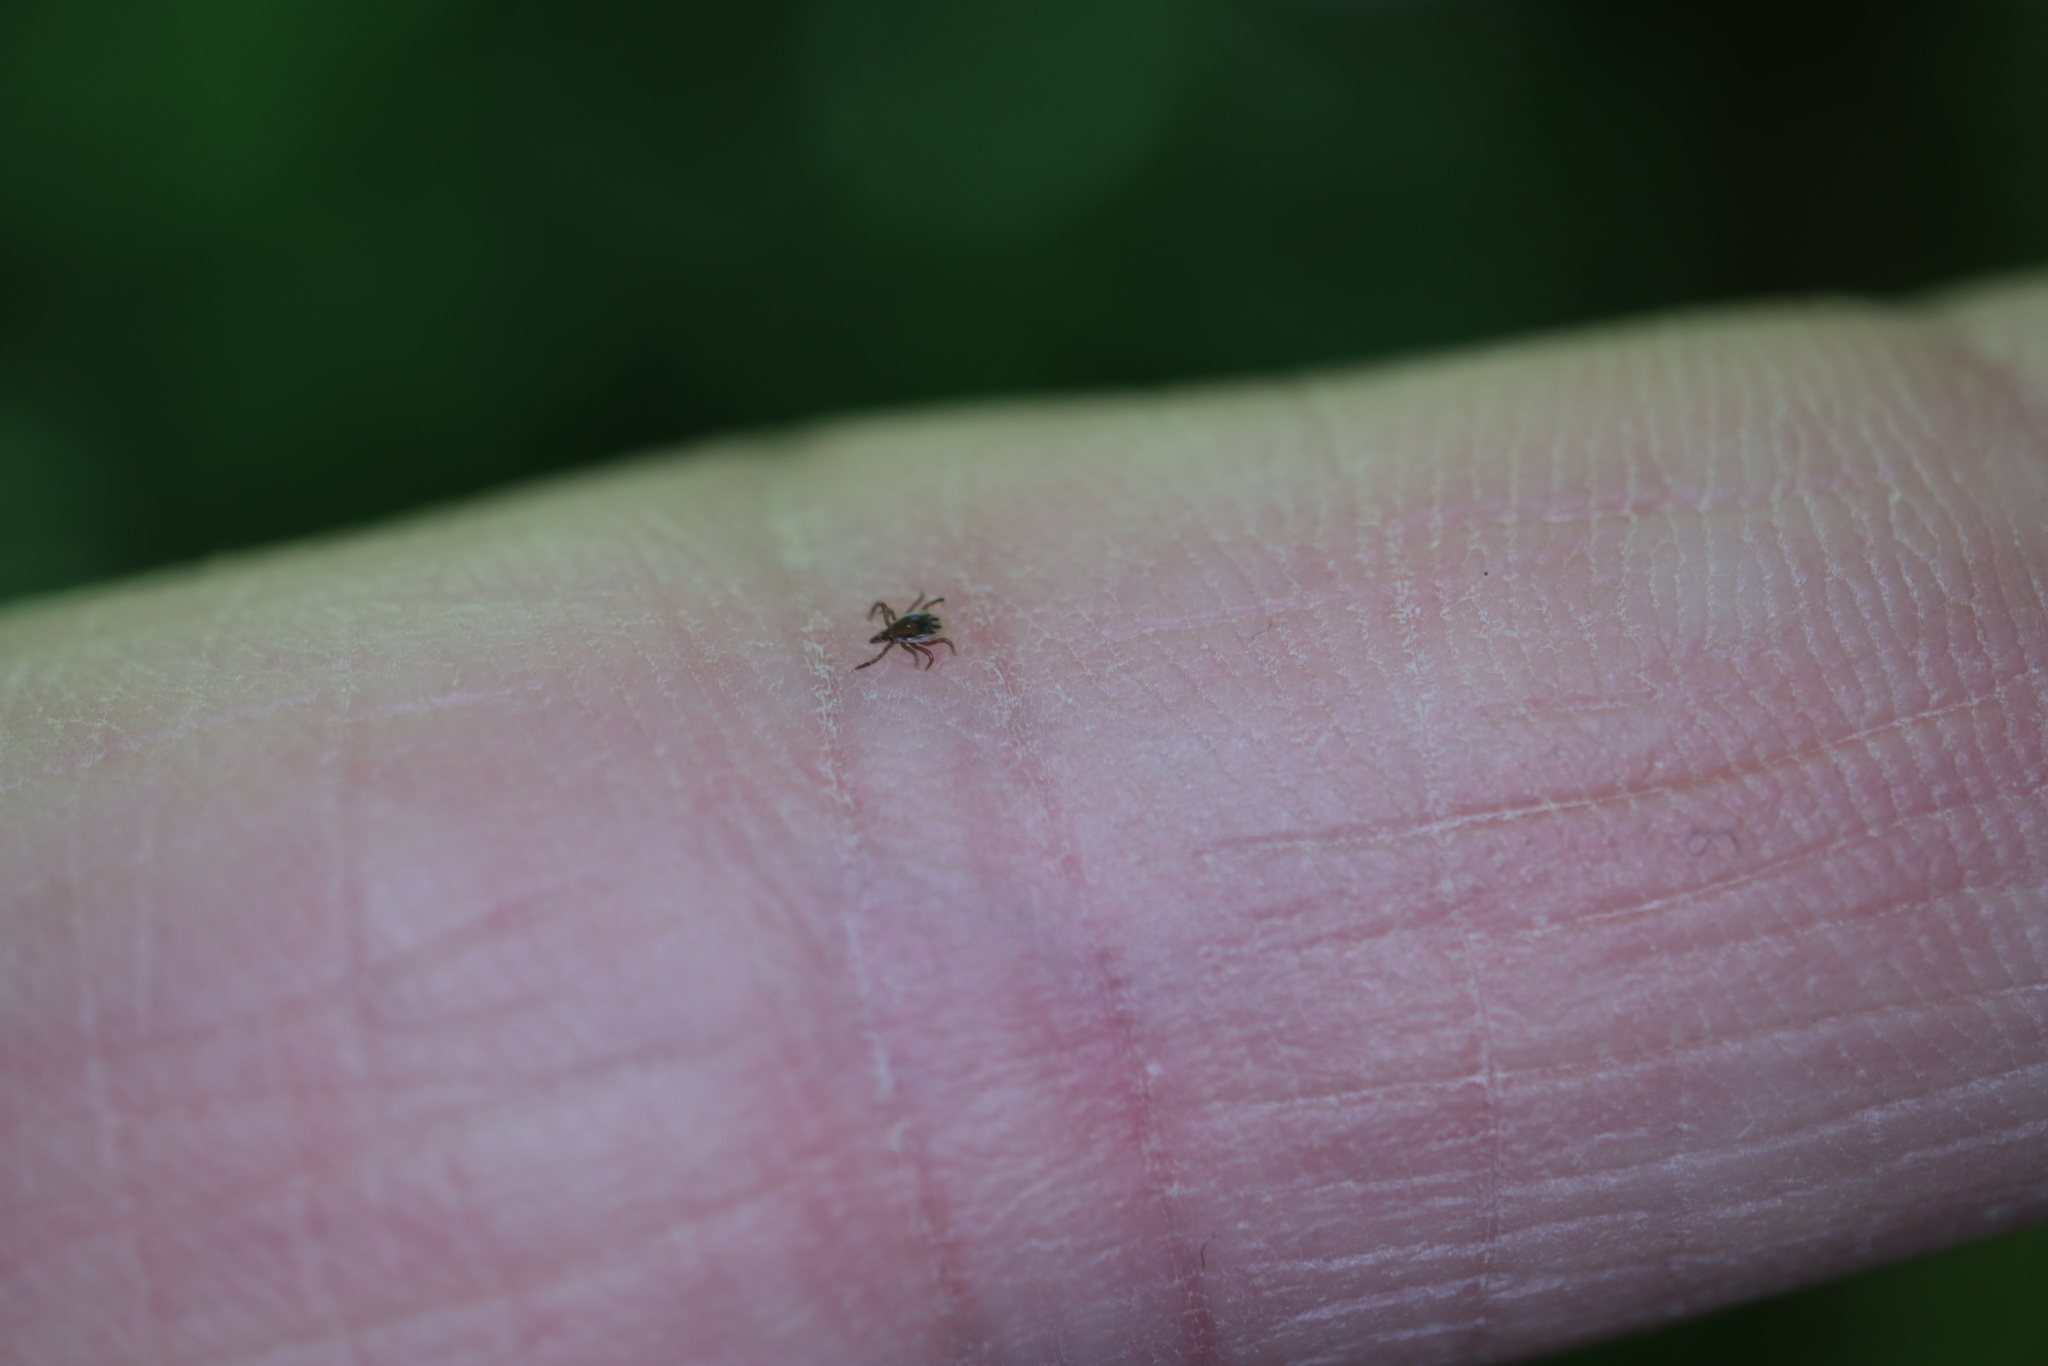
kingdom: Animalia
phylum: Arthropoda
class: Arachnida
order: Ixodida
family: Ixodidae
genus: Ixodes
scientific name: Ixodes scapularis
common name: Black legged tick
